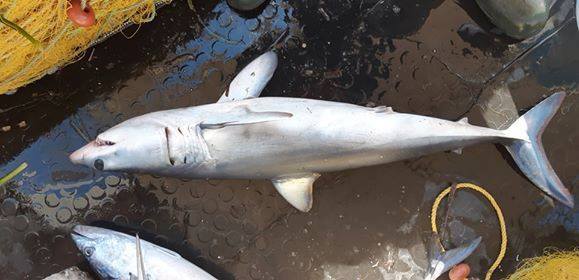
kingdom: Animalia
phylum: Chordata
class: Elasmobranchii
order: Lamniformes
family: Lamnidae
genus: Isurus
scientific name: Isurus oxyrinchus
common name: Shortfin mako
